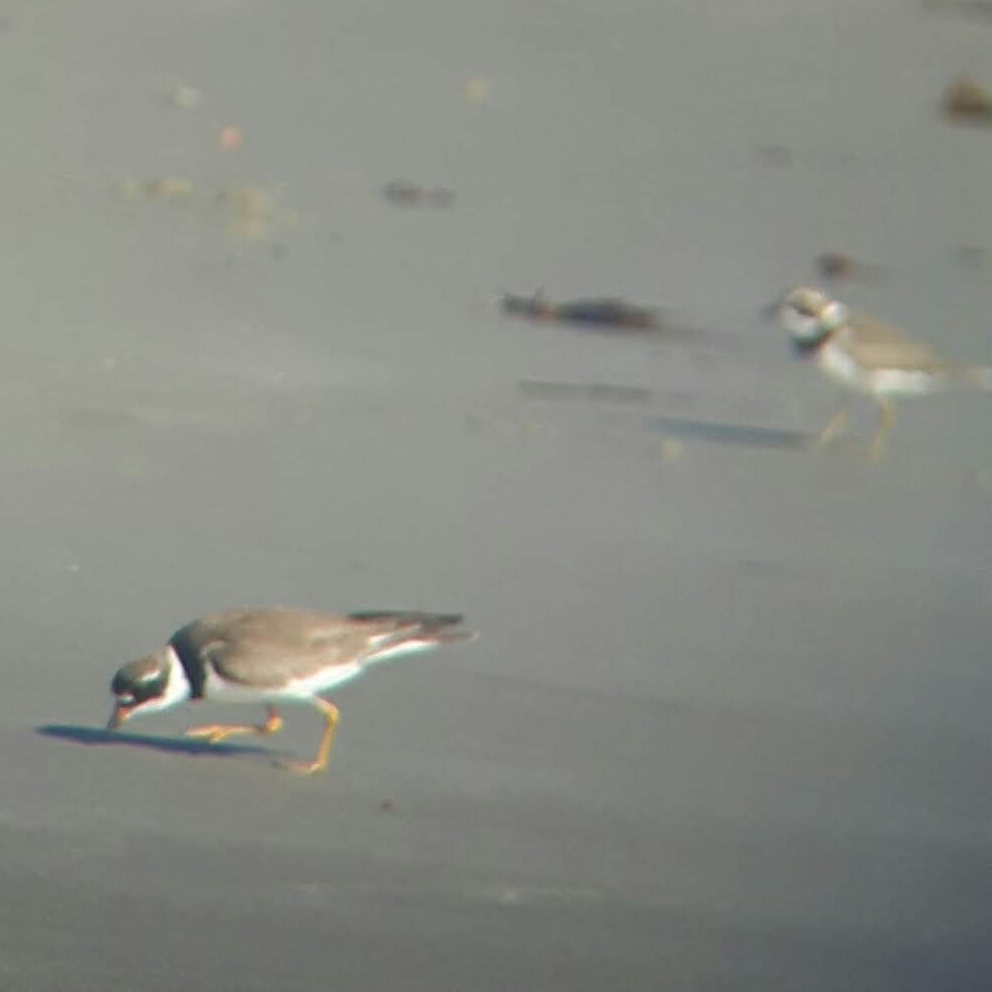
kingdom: Animalia
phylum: Chordata
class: Aves
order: Charadriiformes
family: Charadriidae
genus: Charadrius
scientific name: Charadrius semipalmatus
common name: Semipalmated plover
